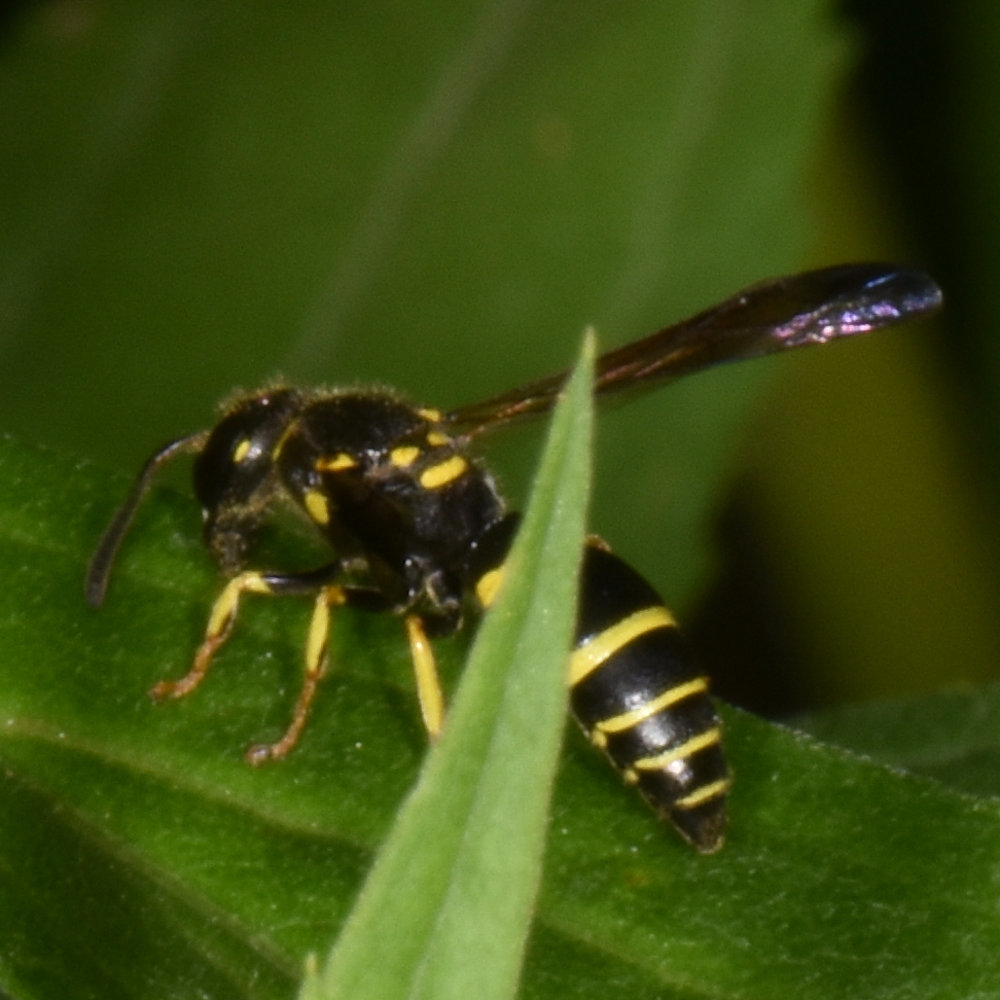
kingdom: Animalia
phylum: Arthropoda
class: Insecta
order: Hymenoptera
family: Vespidae
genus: Ancistrocerus
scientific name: Ancistrocerus adiabatus
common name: Bramble mason wasp
